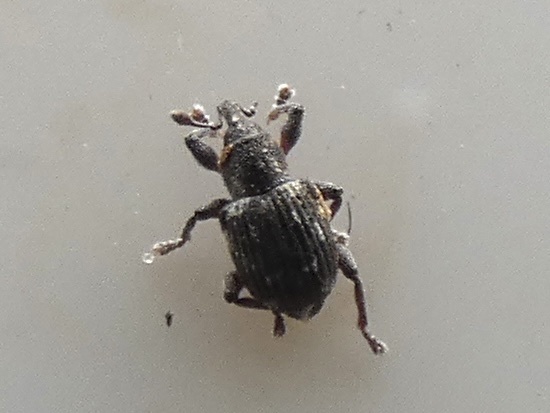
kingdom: Animalia
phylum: Arthropoda
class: Insecta
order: Coleoptera
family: Brachyceridae
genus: Tanysphyrus
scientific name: Tanysphyrus lemnae
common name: Duckweed weevil
